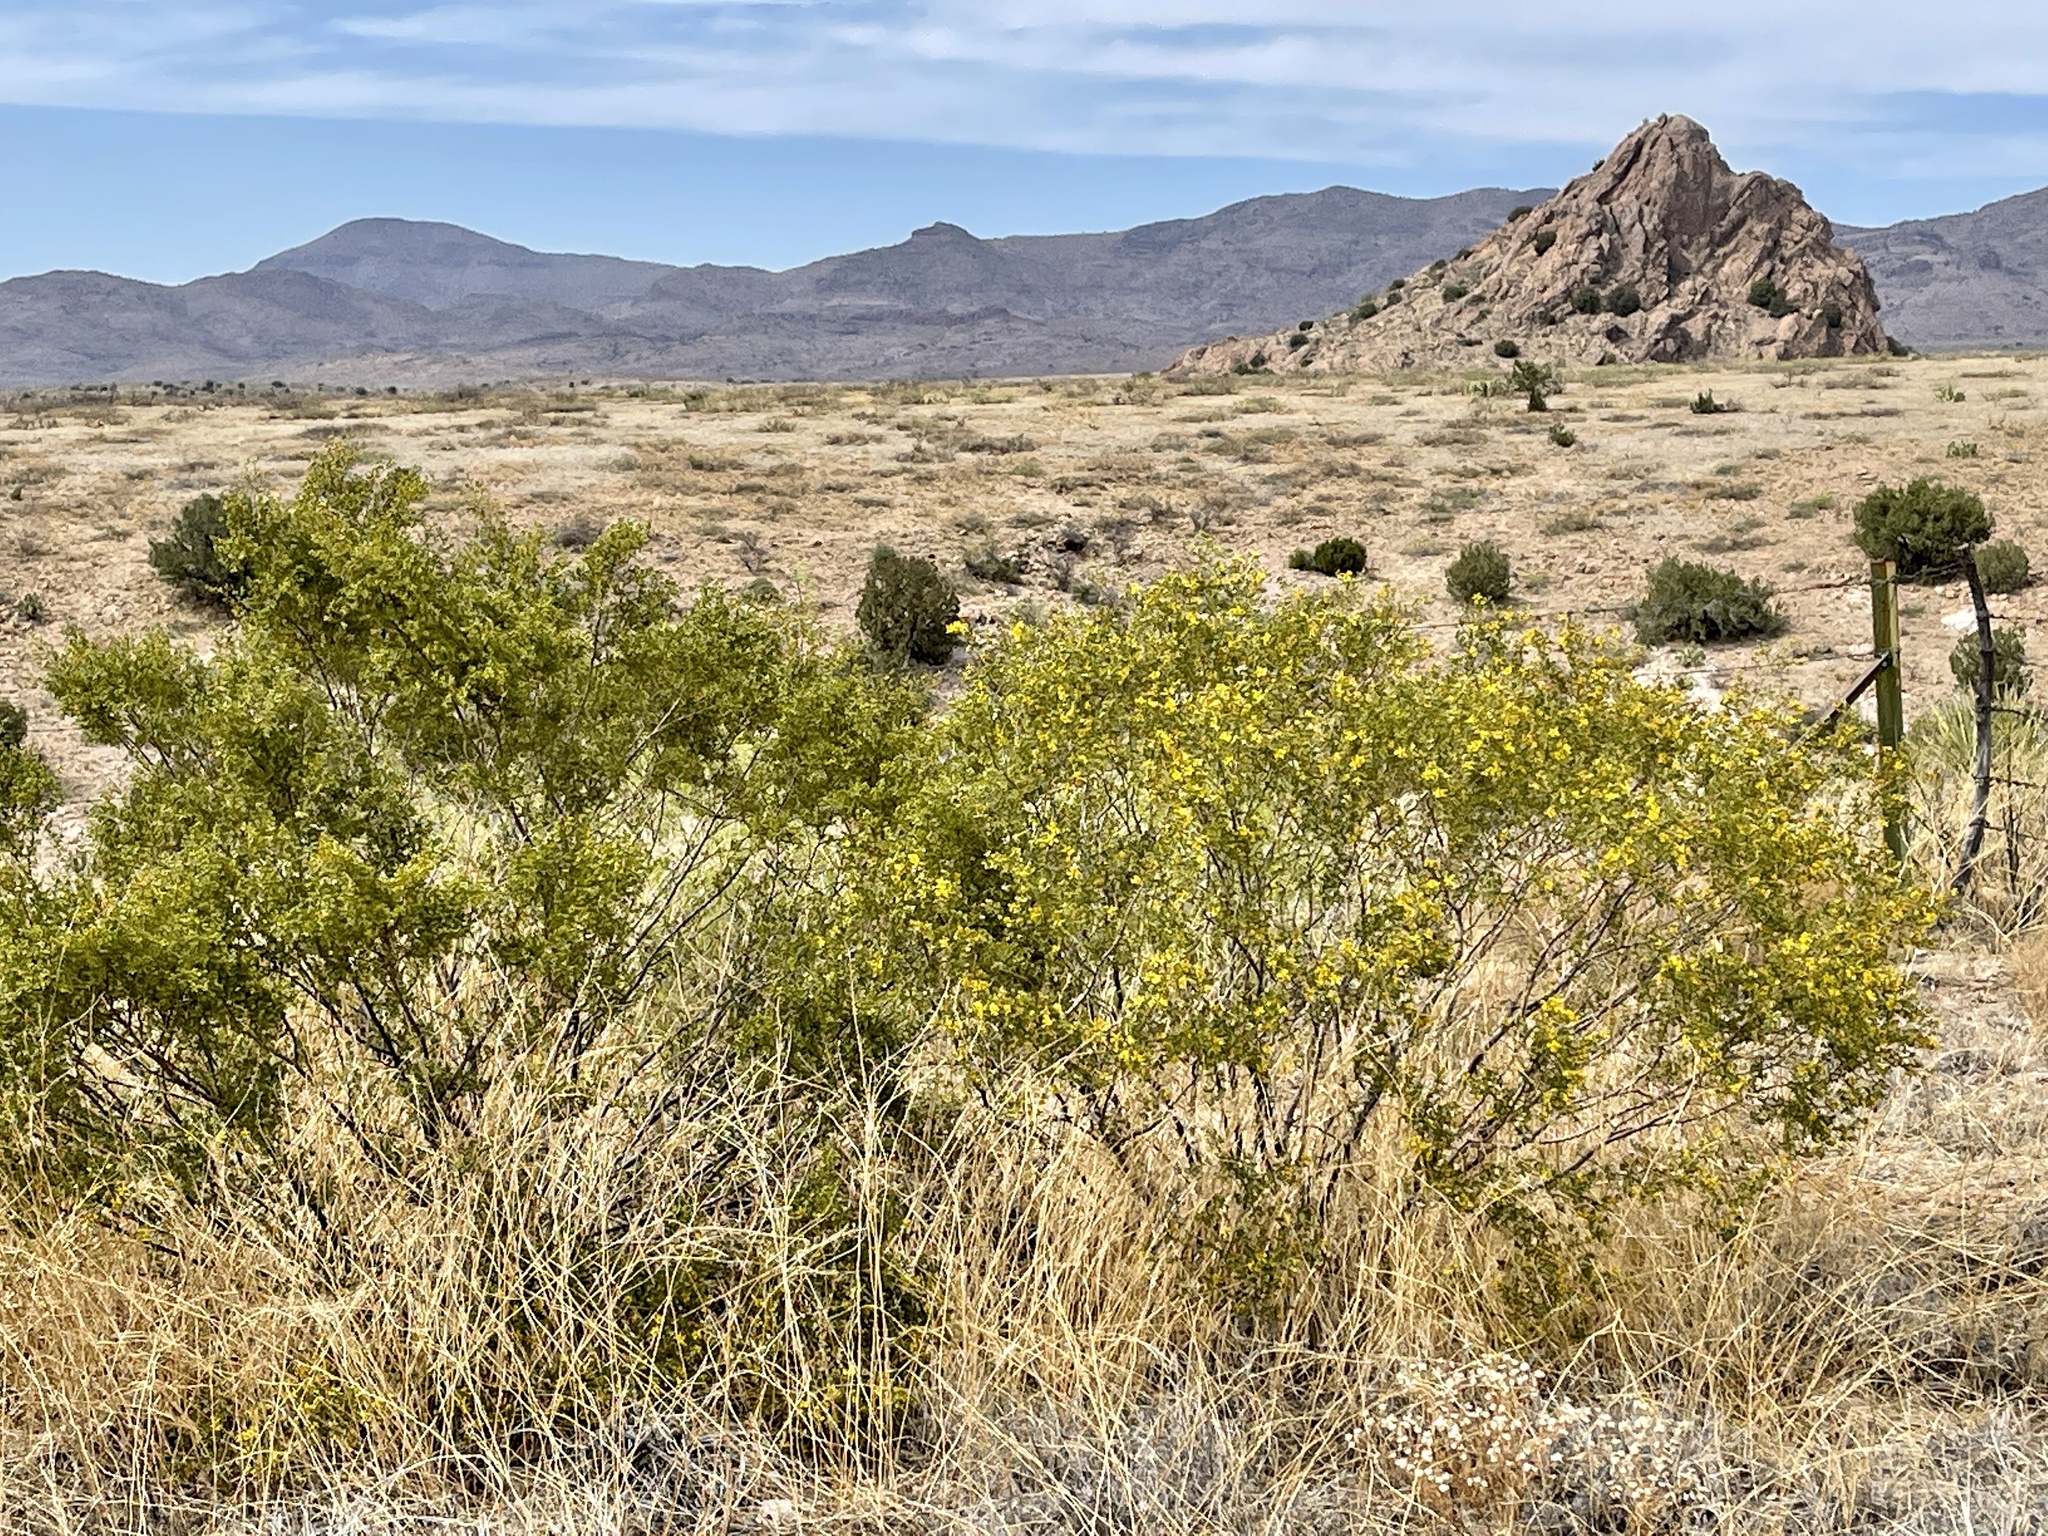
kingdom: Plantae
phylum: Tracheophyta
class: Magnoliopsida
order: Zygophyllales
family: Zygophyllaceae
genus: Larrea
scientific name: Larrea tridentata
